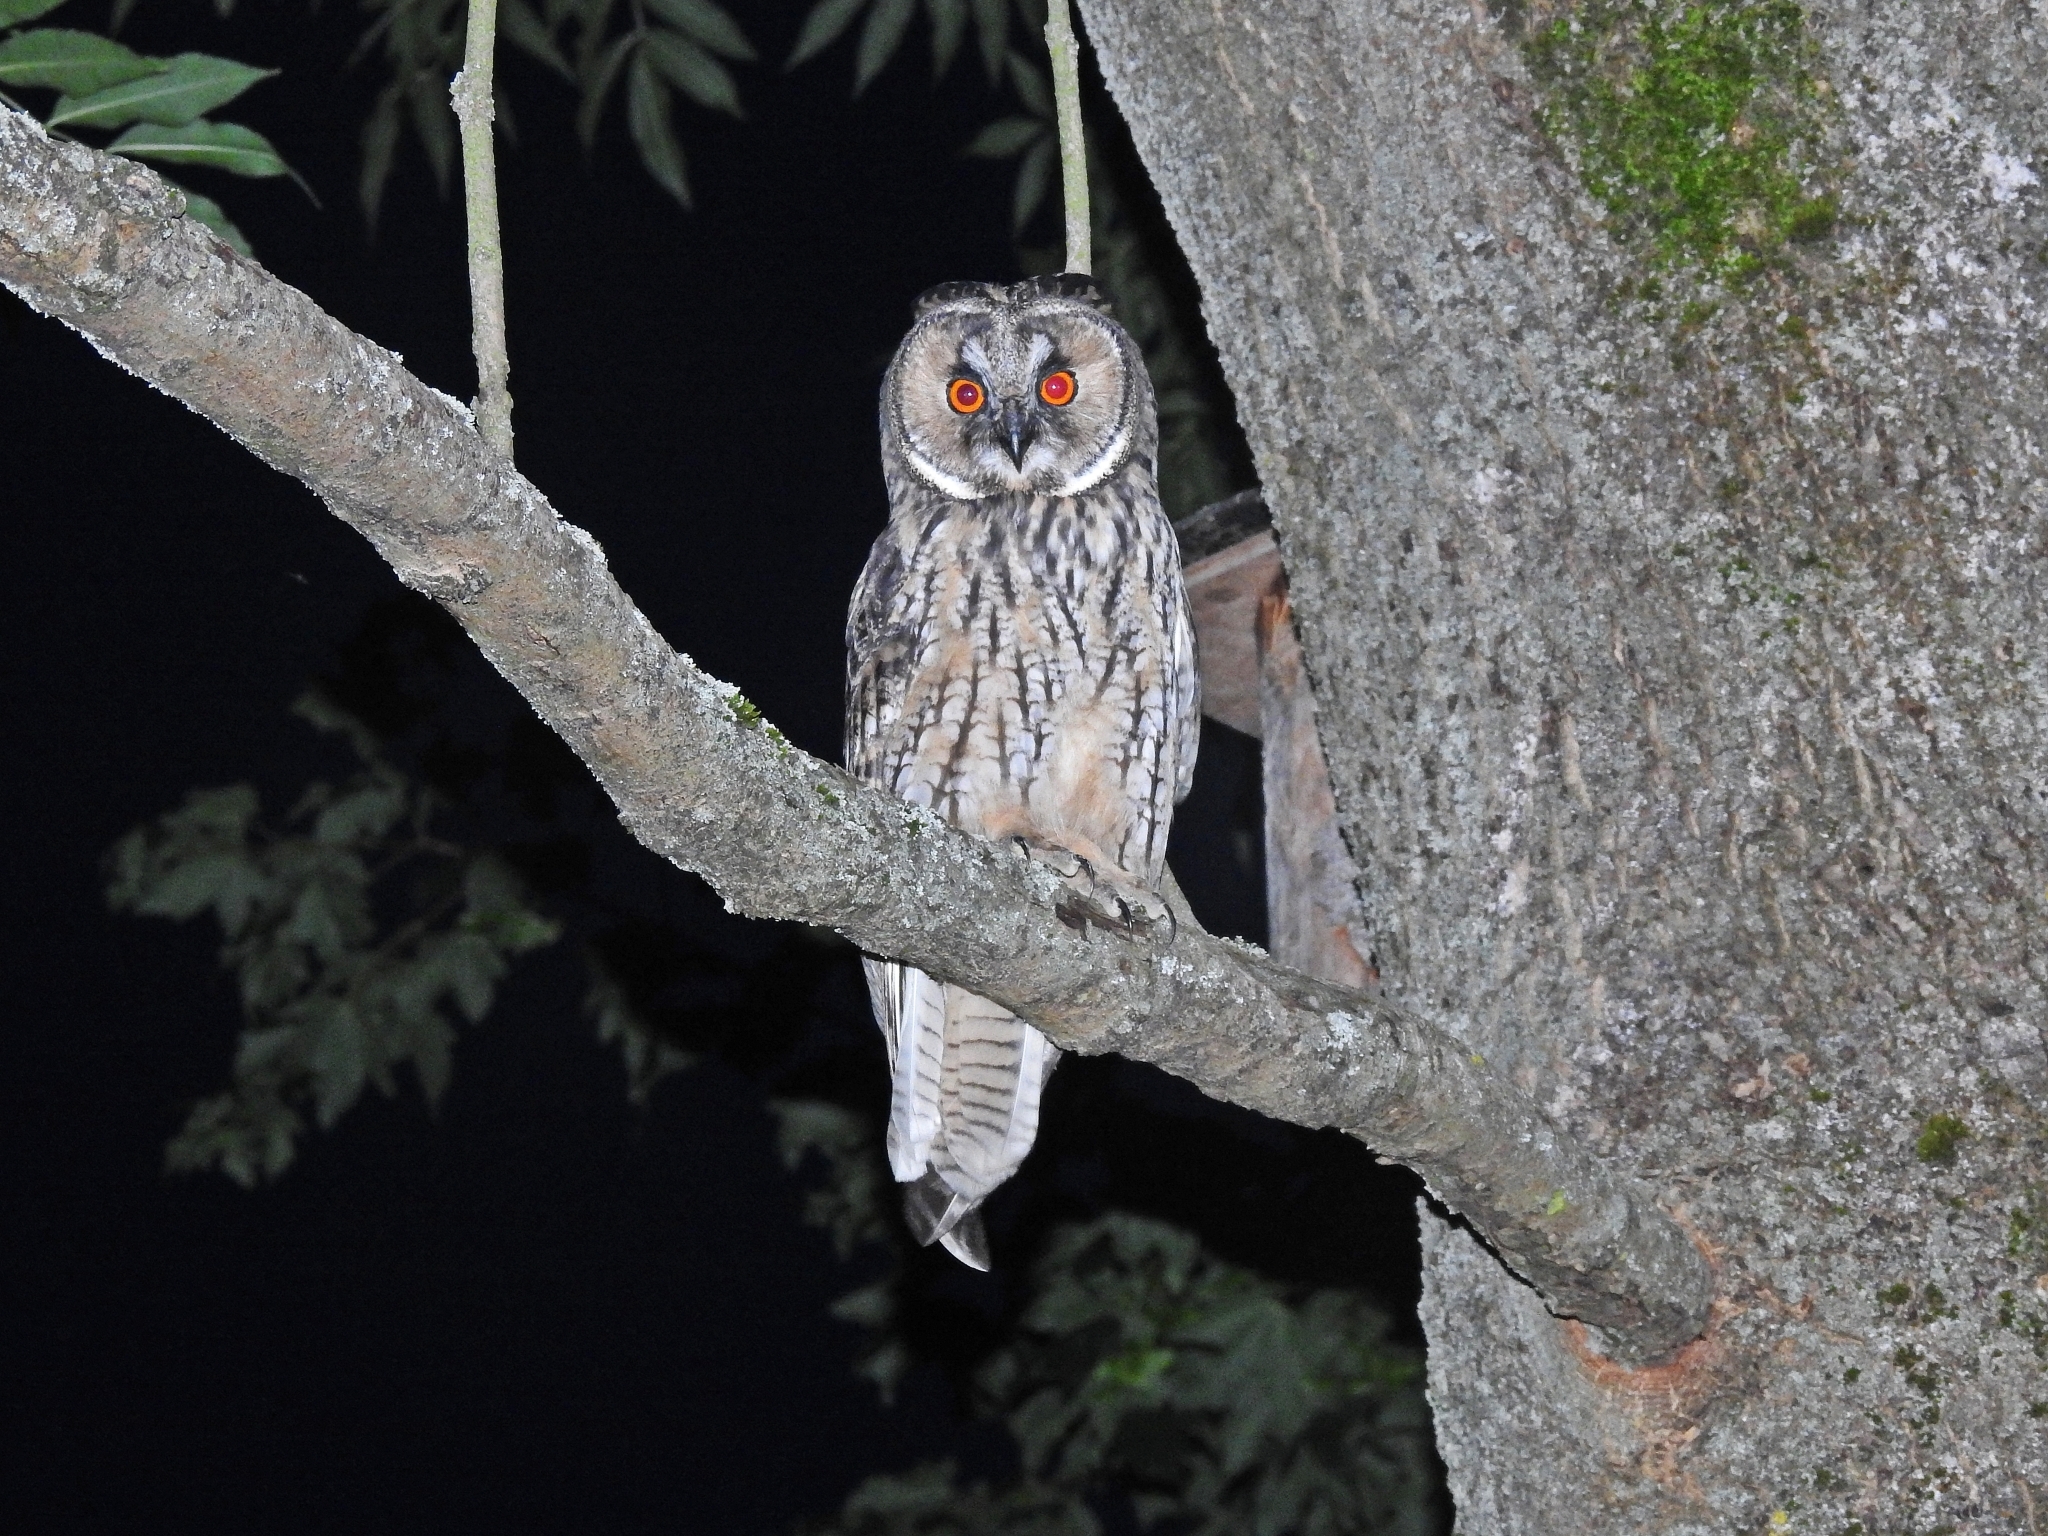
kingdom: Animalia
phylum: Chordata
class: Aves
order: Strigiformes
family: Strigidae
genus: Asio
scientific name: Asio otus
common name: Long-eared owl
